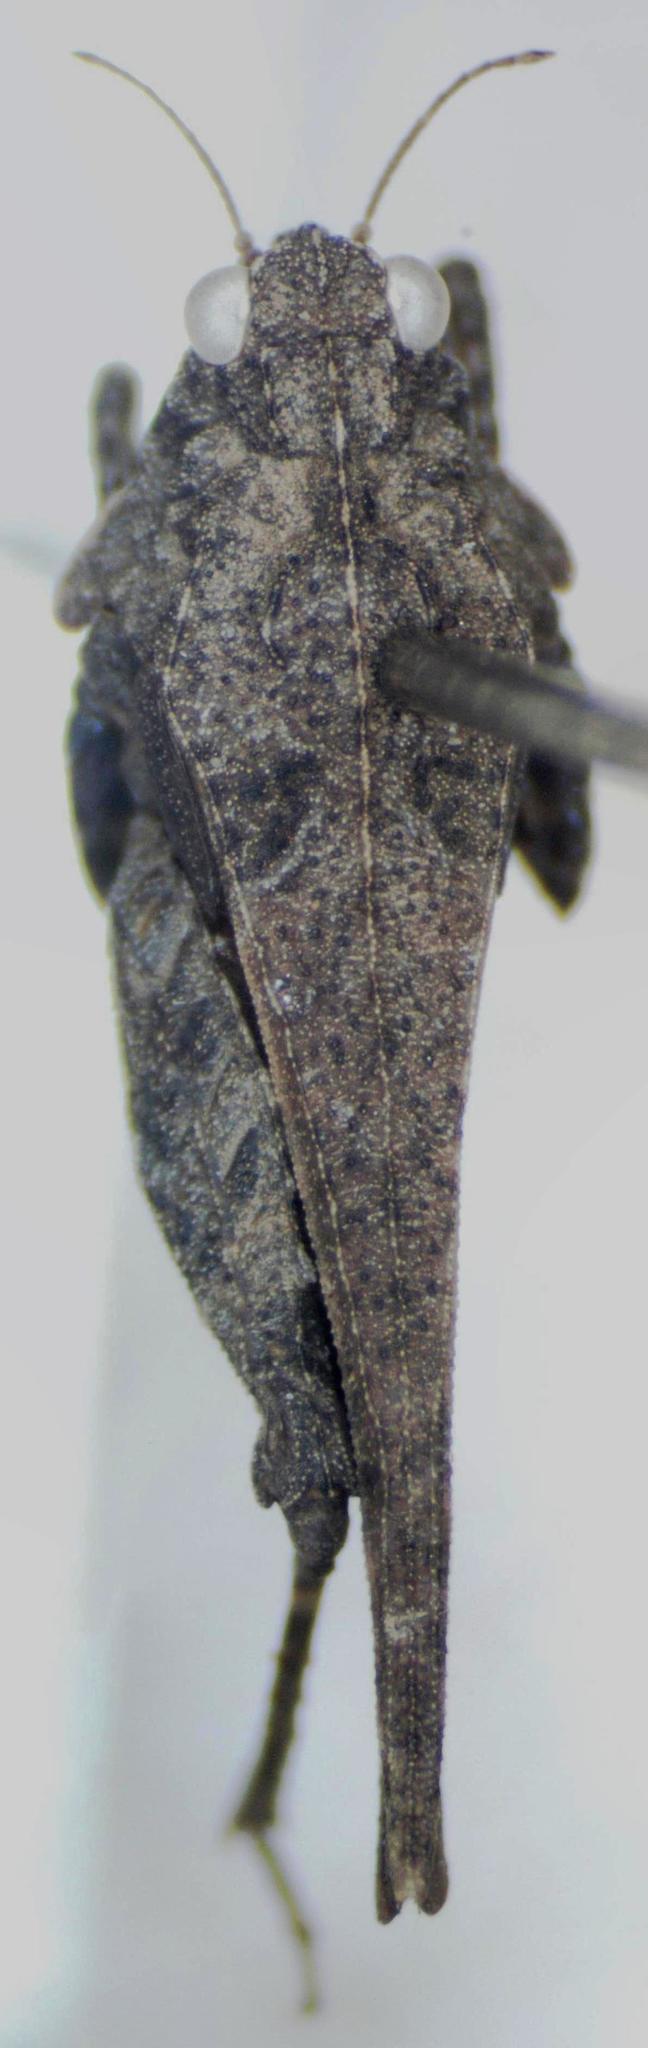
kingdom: Animalia
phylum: Arthropoda
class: Insecta
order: Orthoptera
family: Tetrigidae
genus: Ochetotettix
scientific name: Ochetotettix barretti
